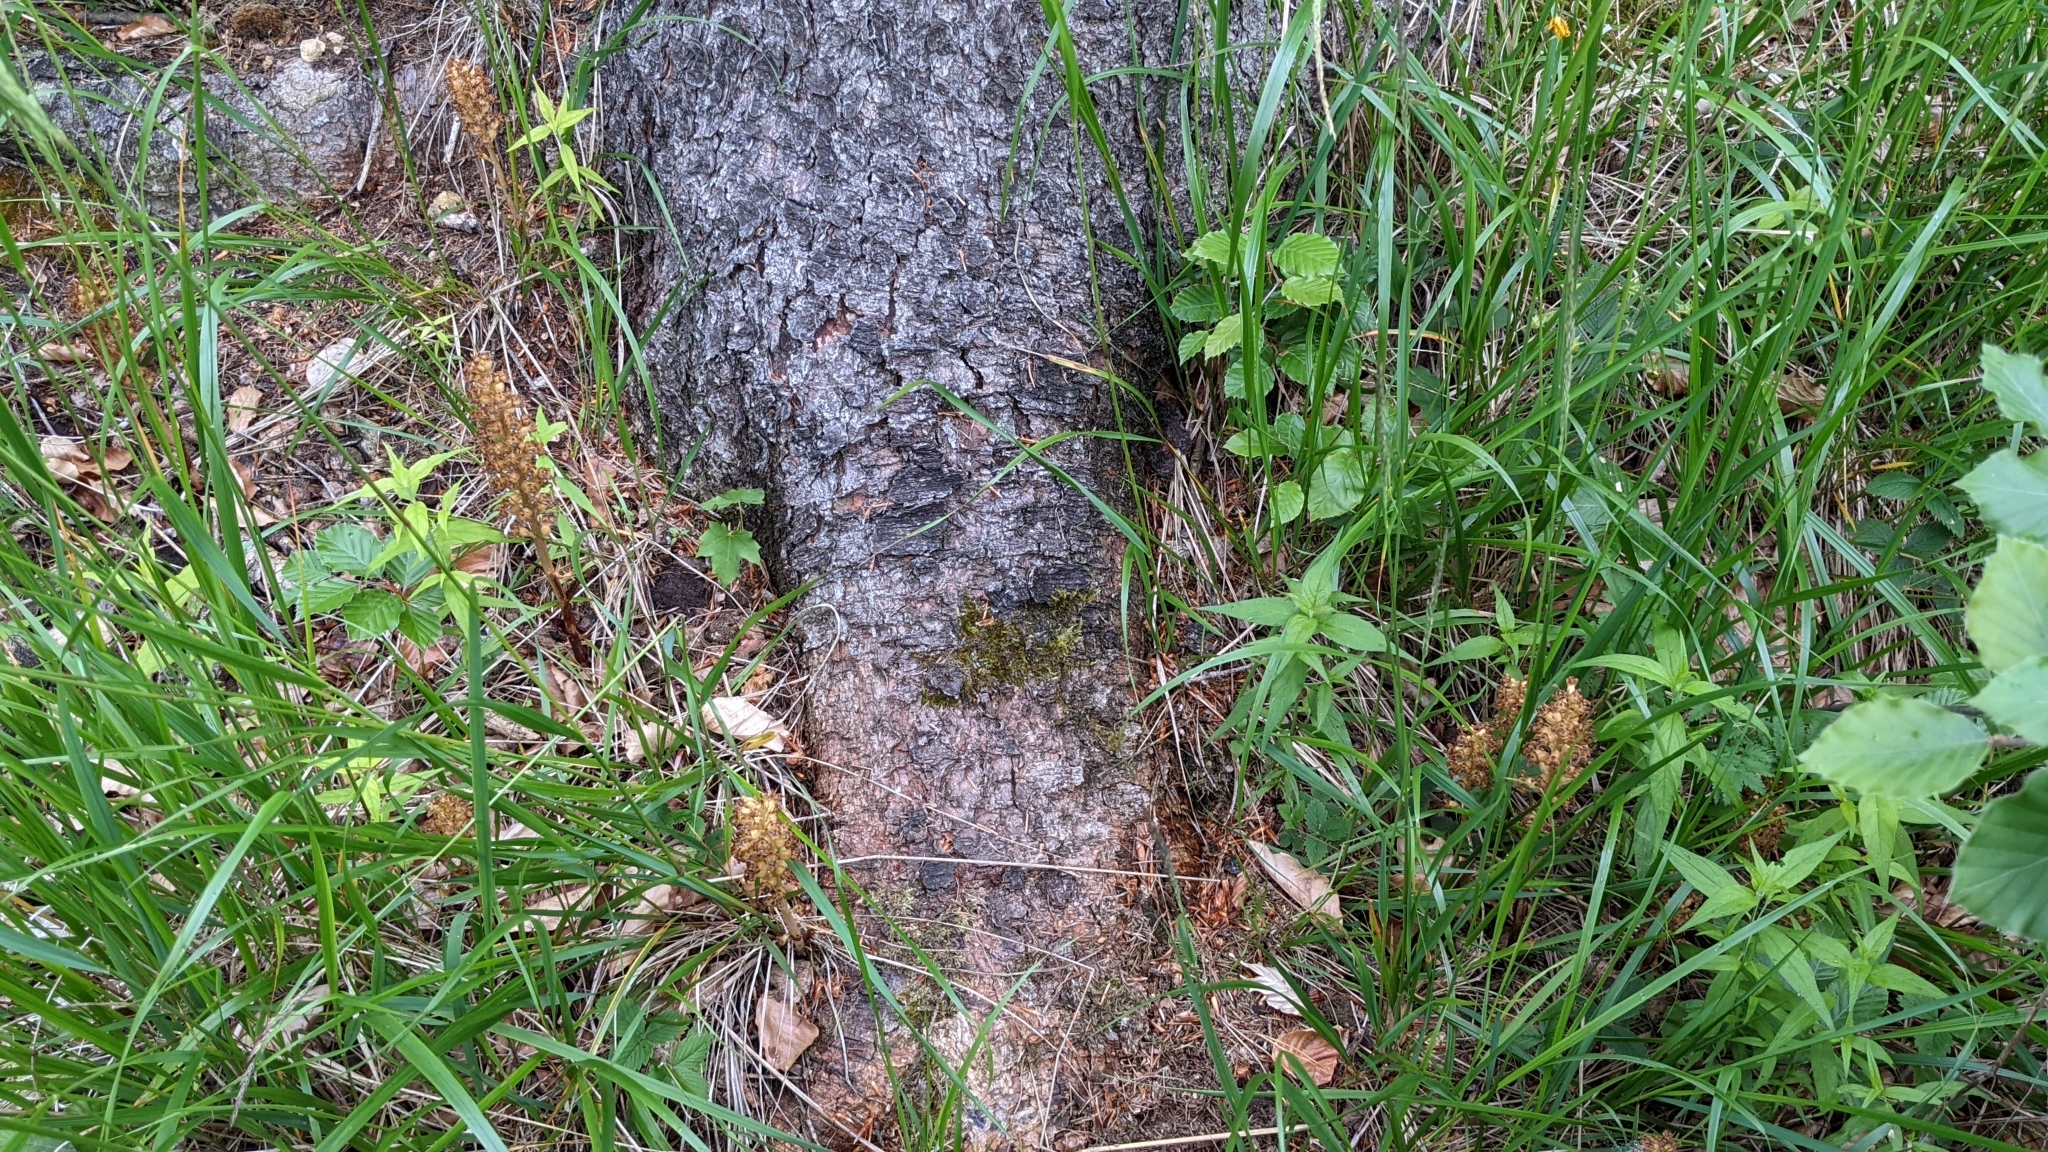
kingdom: Plantae
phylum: Tracheophyta
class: Liliopsida
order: Asparagales
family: Orchidaceae
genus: Neottia
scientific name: Neottia nidus-avis
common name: Bird's-nest orchid
